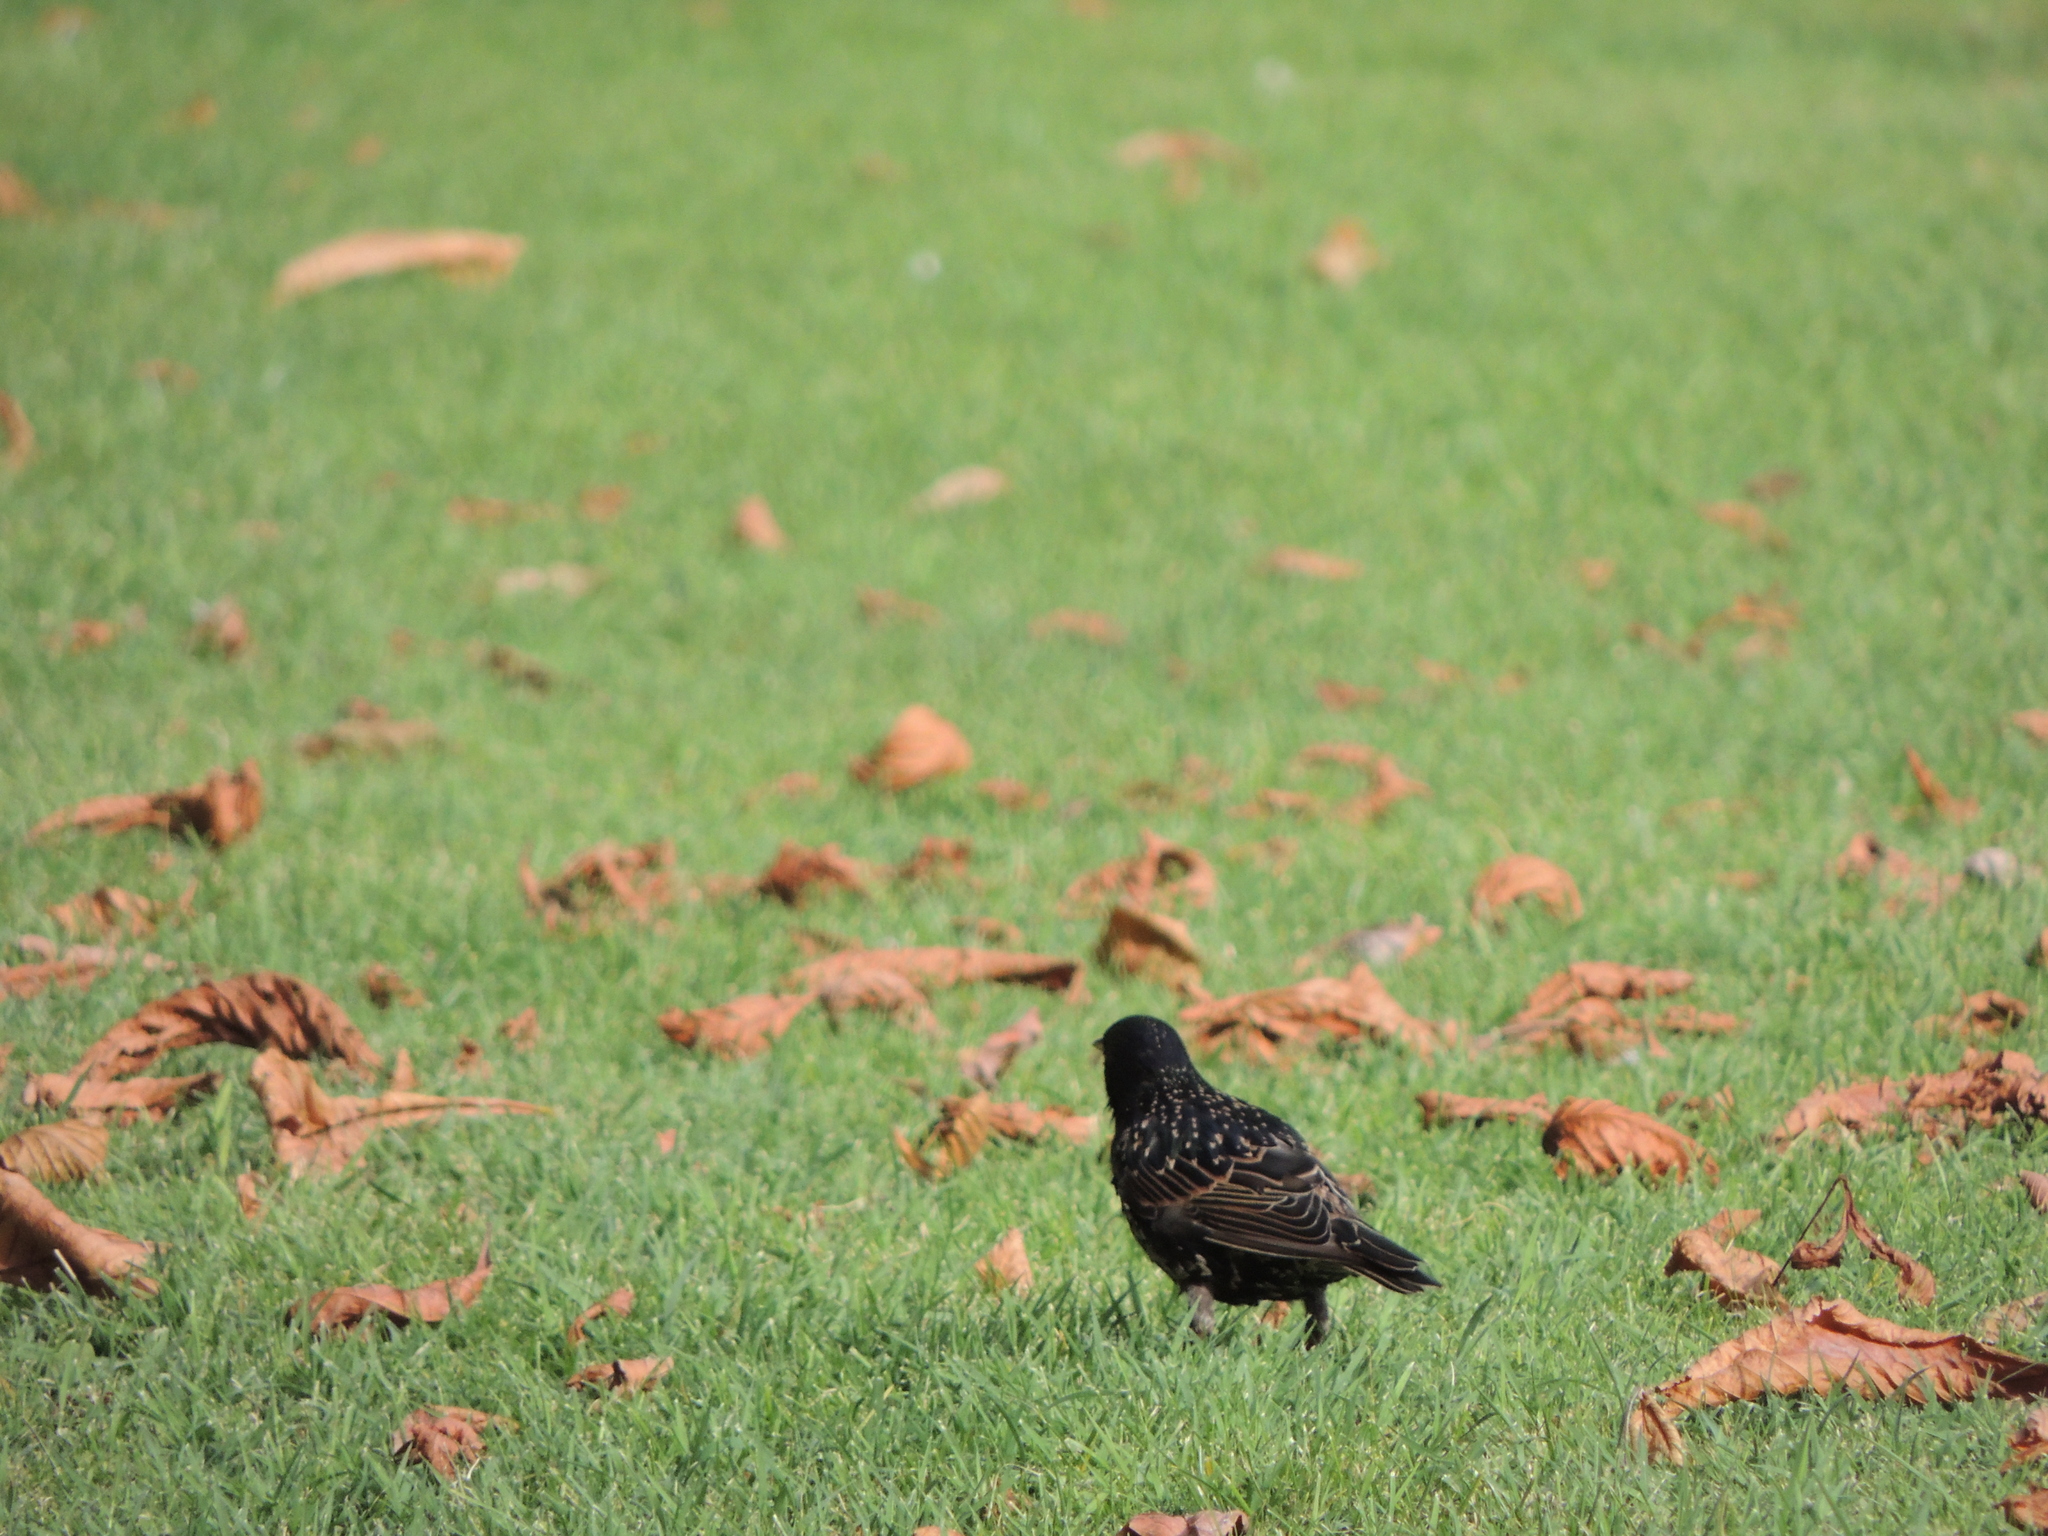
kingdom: Animalia
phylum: Chordata
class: Aves
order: Passeriformes
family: Sturnidae
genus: Sturnus
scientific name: Sturnus vulgaris
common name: Common starling
